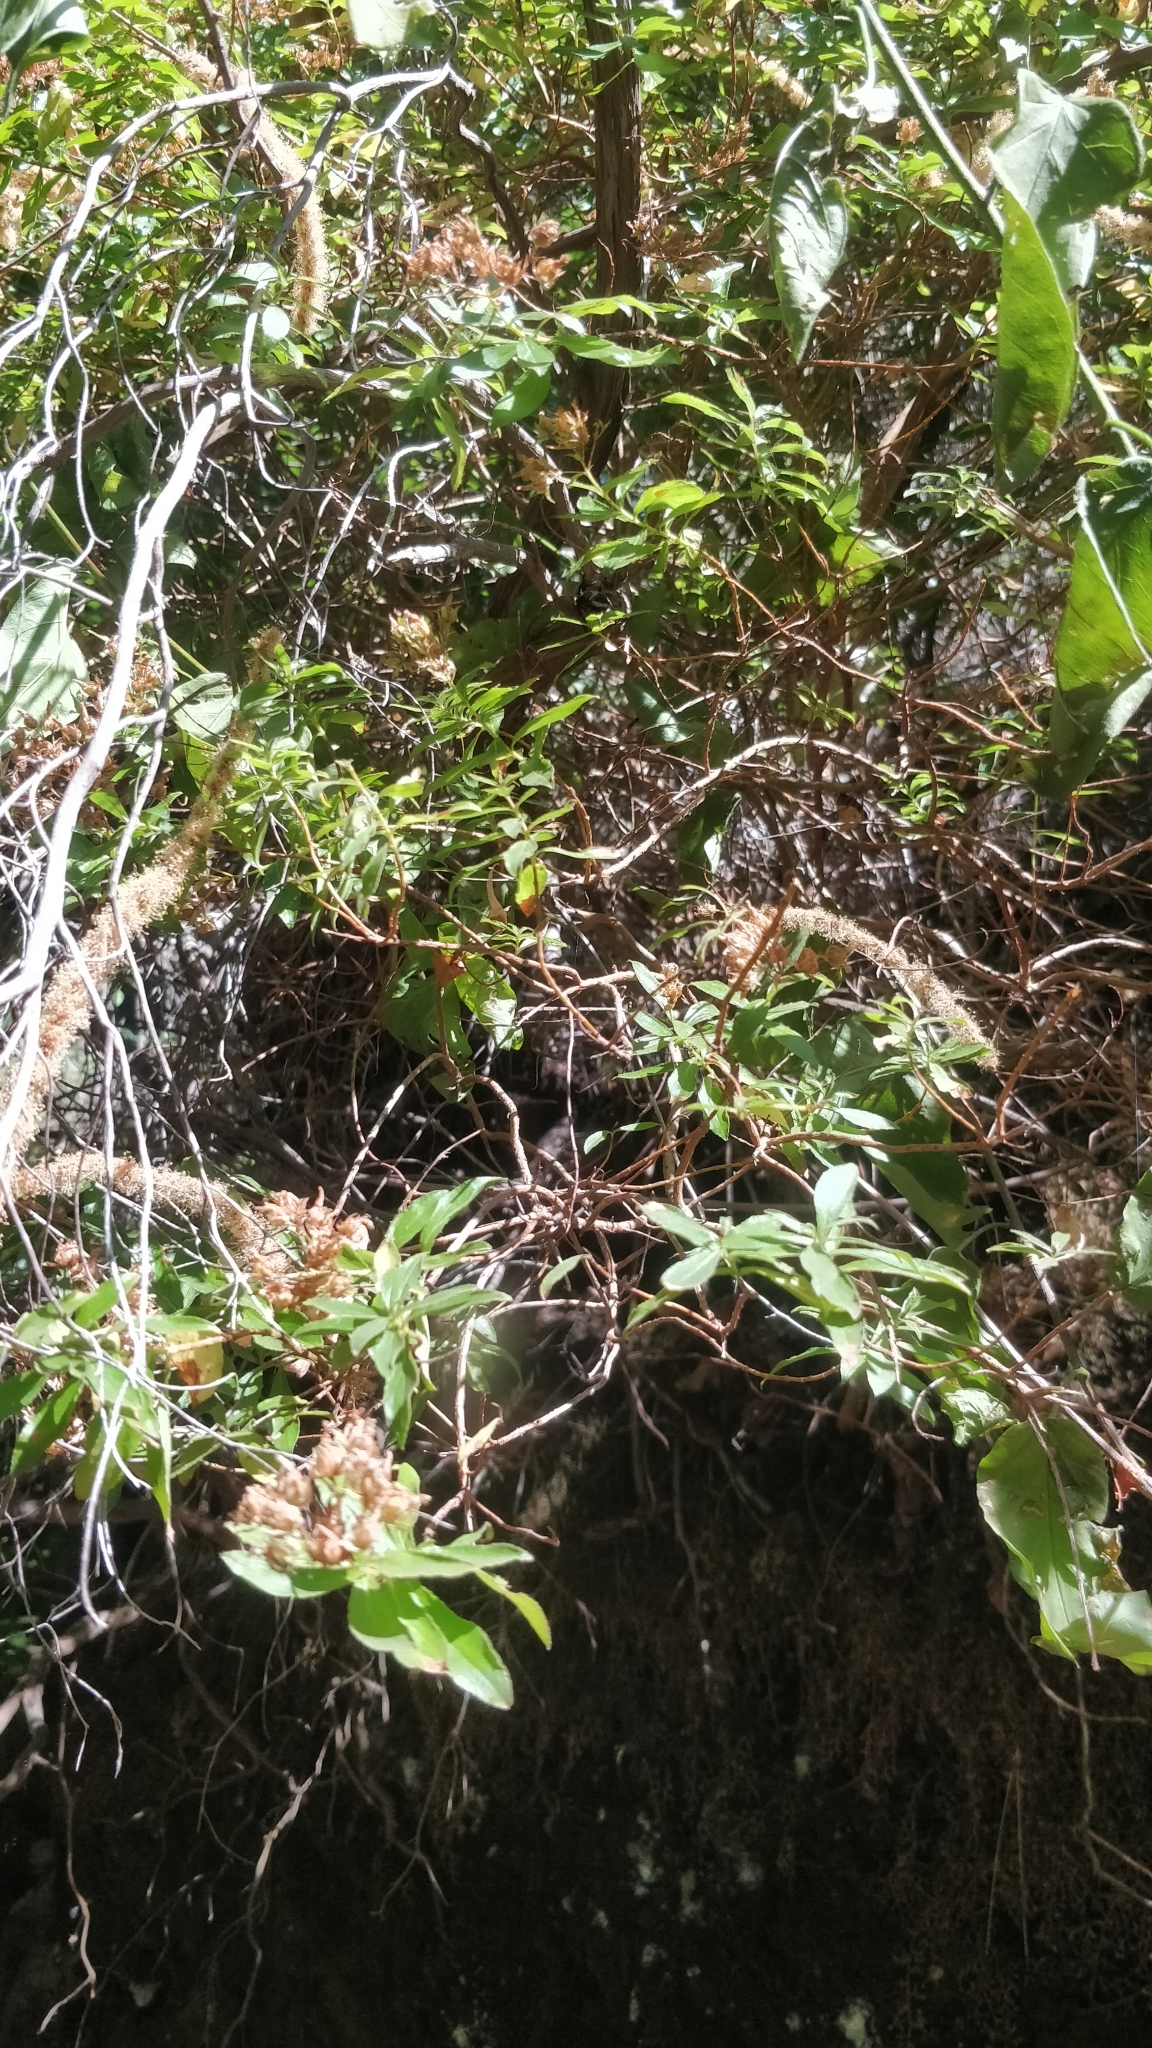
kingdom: Plantae
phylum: Tracheophyta
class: Magnoliopsida
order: Malpighiales
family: Hypericaceae
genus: Hypericum
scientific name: Hypericum glandulosum
